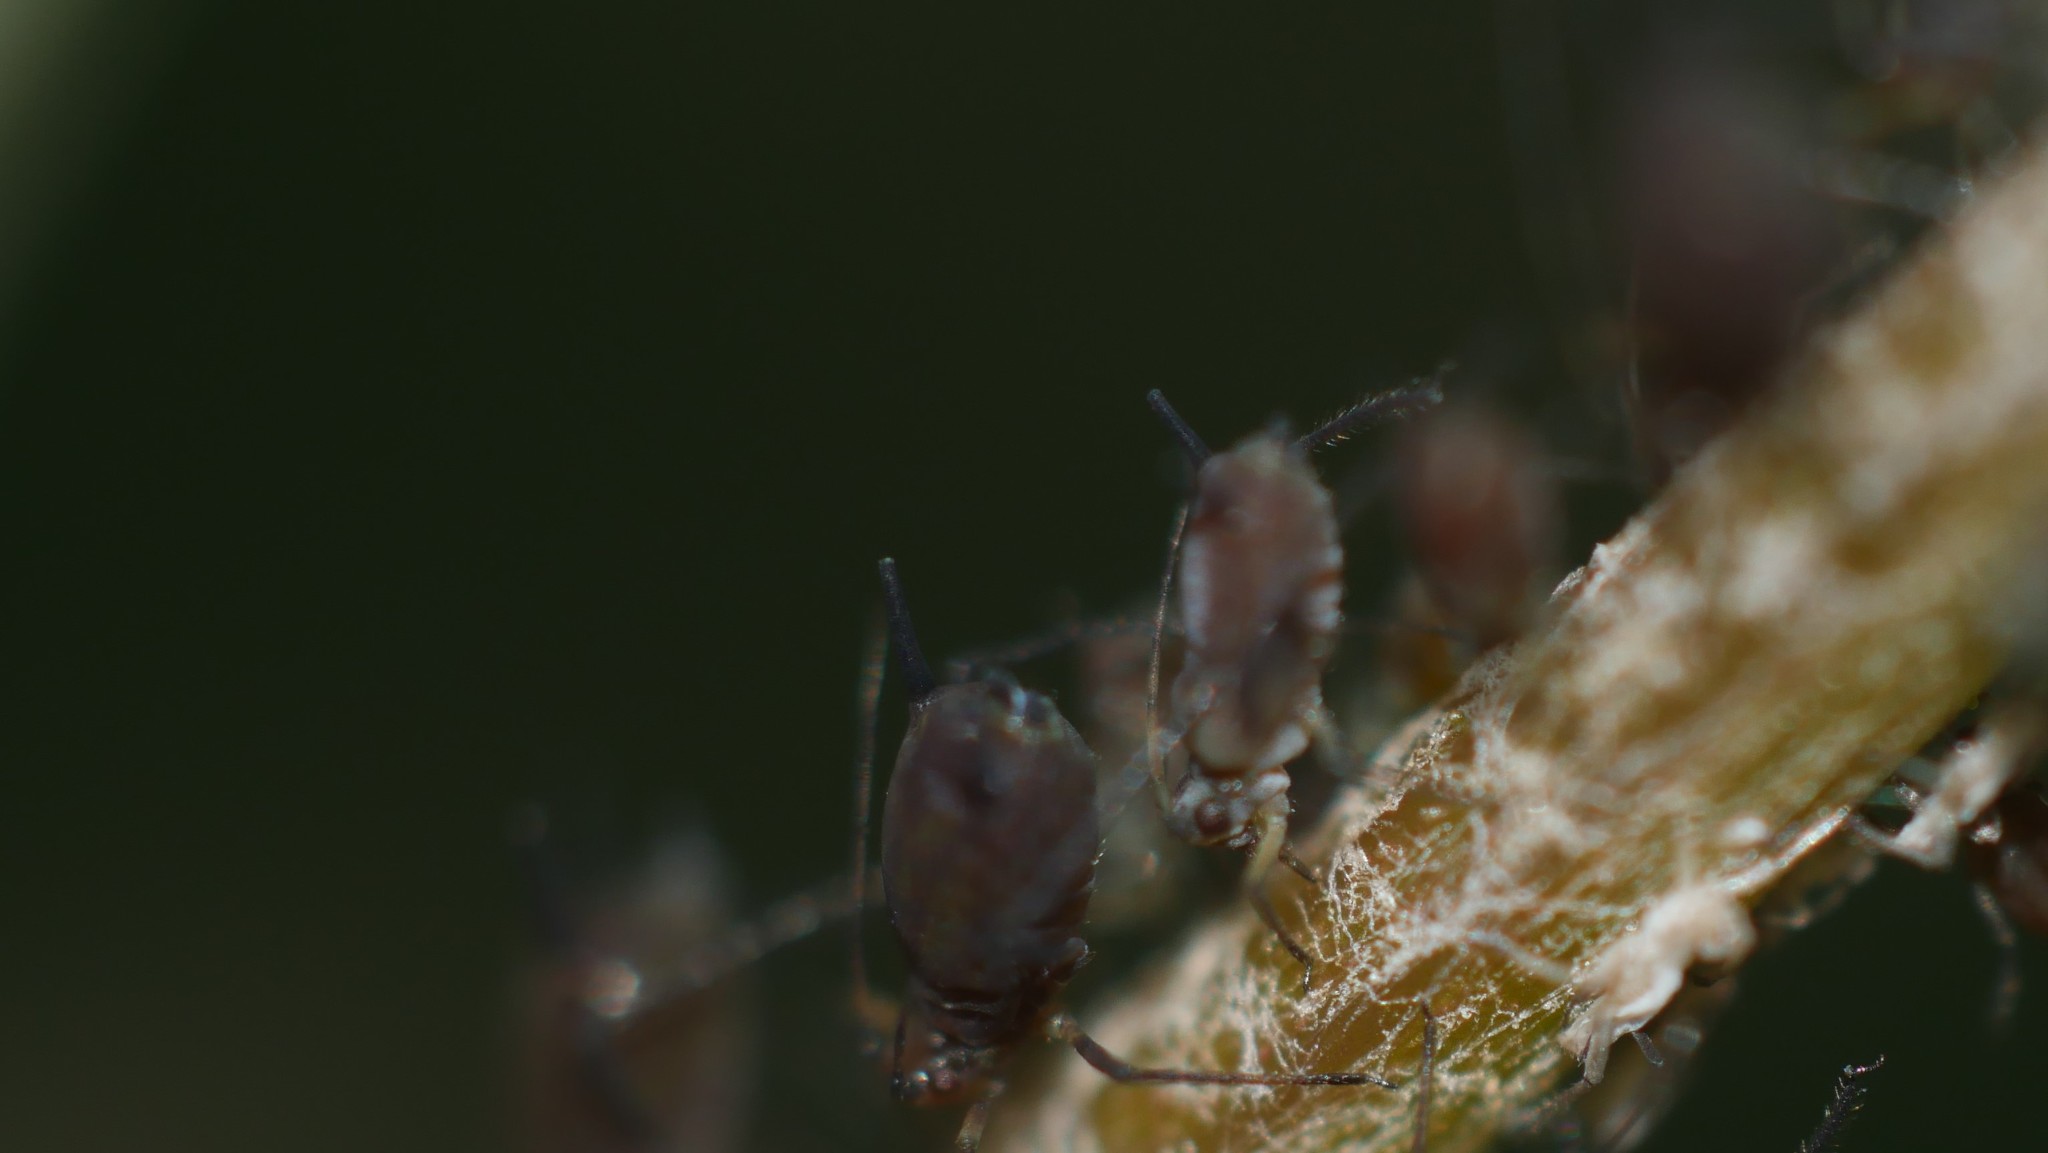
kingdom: Animalia
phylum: Arthropoda
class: Insecta
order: Hemiptera
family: Aphididae
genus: Aphis
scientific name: Aphis illinoisensis
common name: Grapevine aphid
